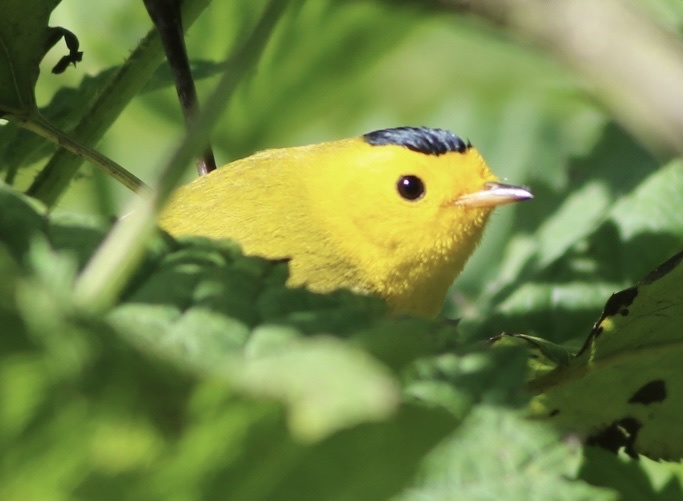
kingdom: Animalia
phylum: Chordata
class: Aves
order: Passeriformes
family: Parulidae
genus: Cardellina
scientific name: Cardellina pusilla
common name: Wilson's warbler
